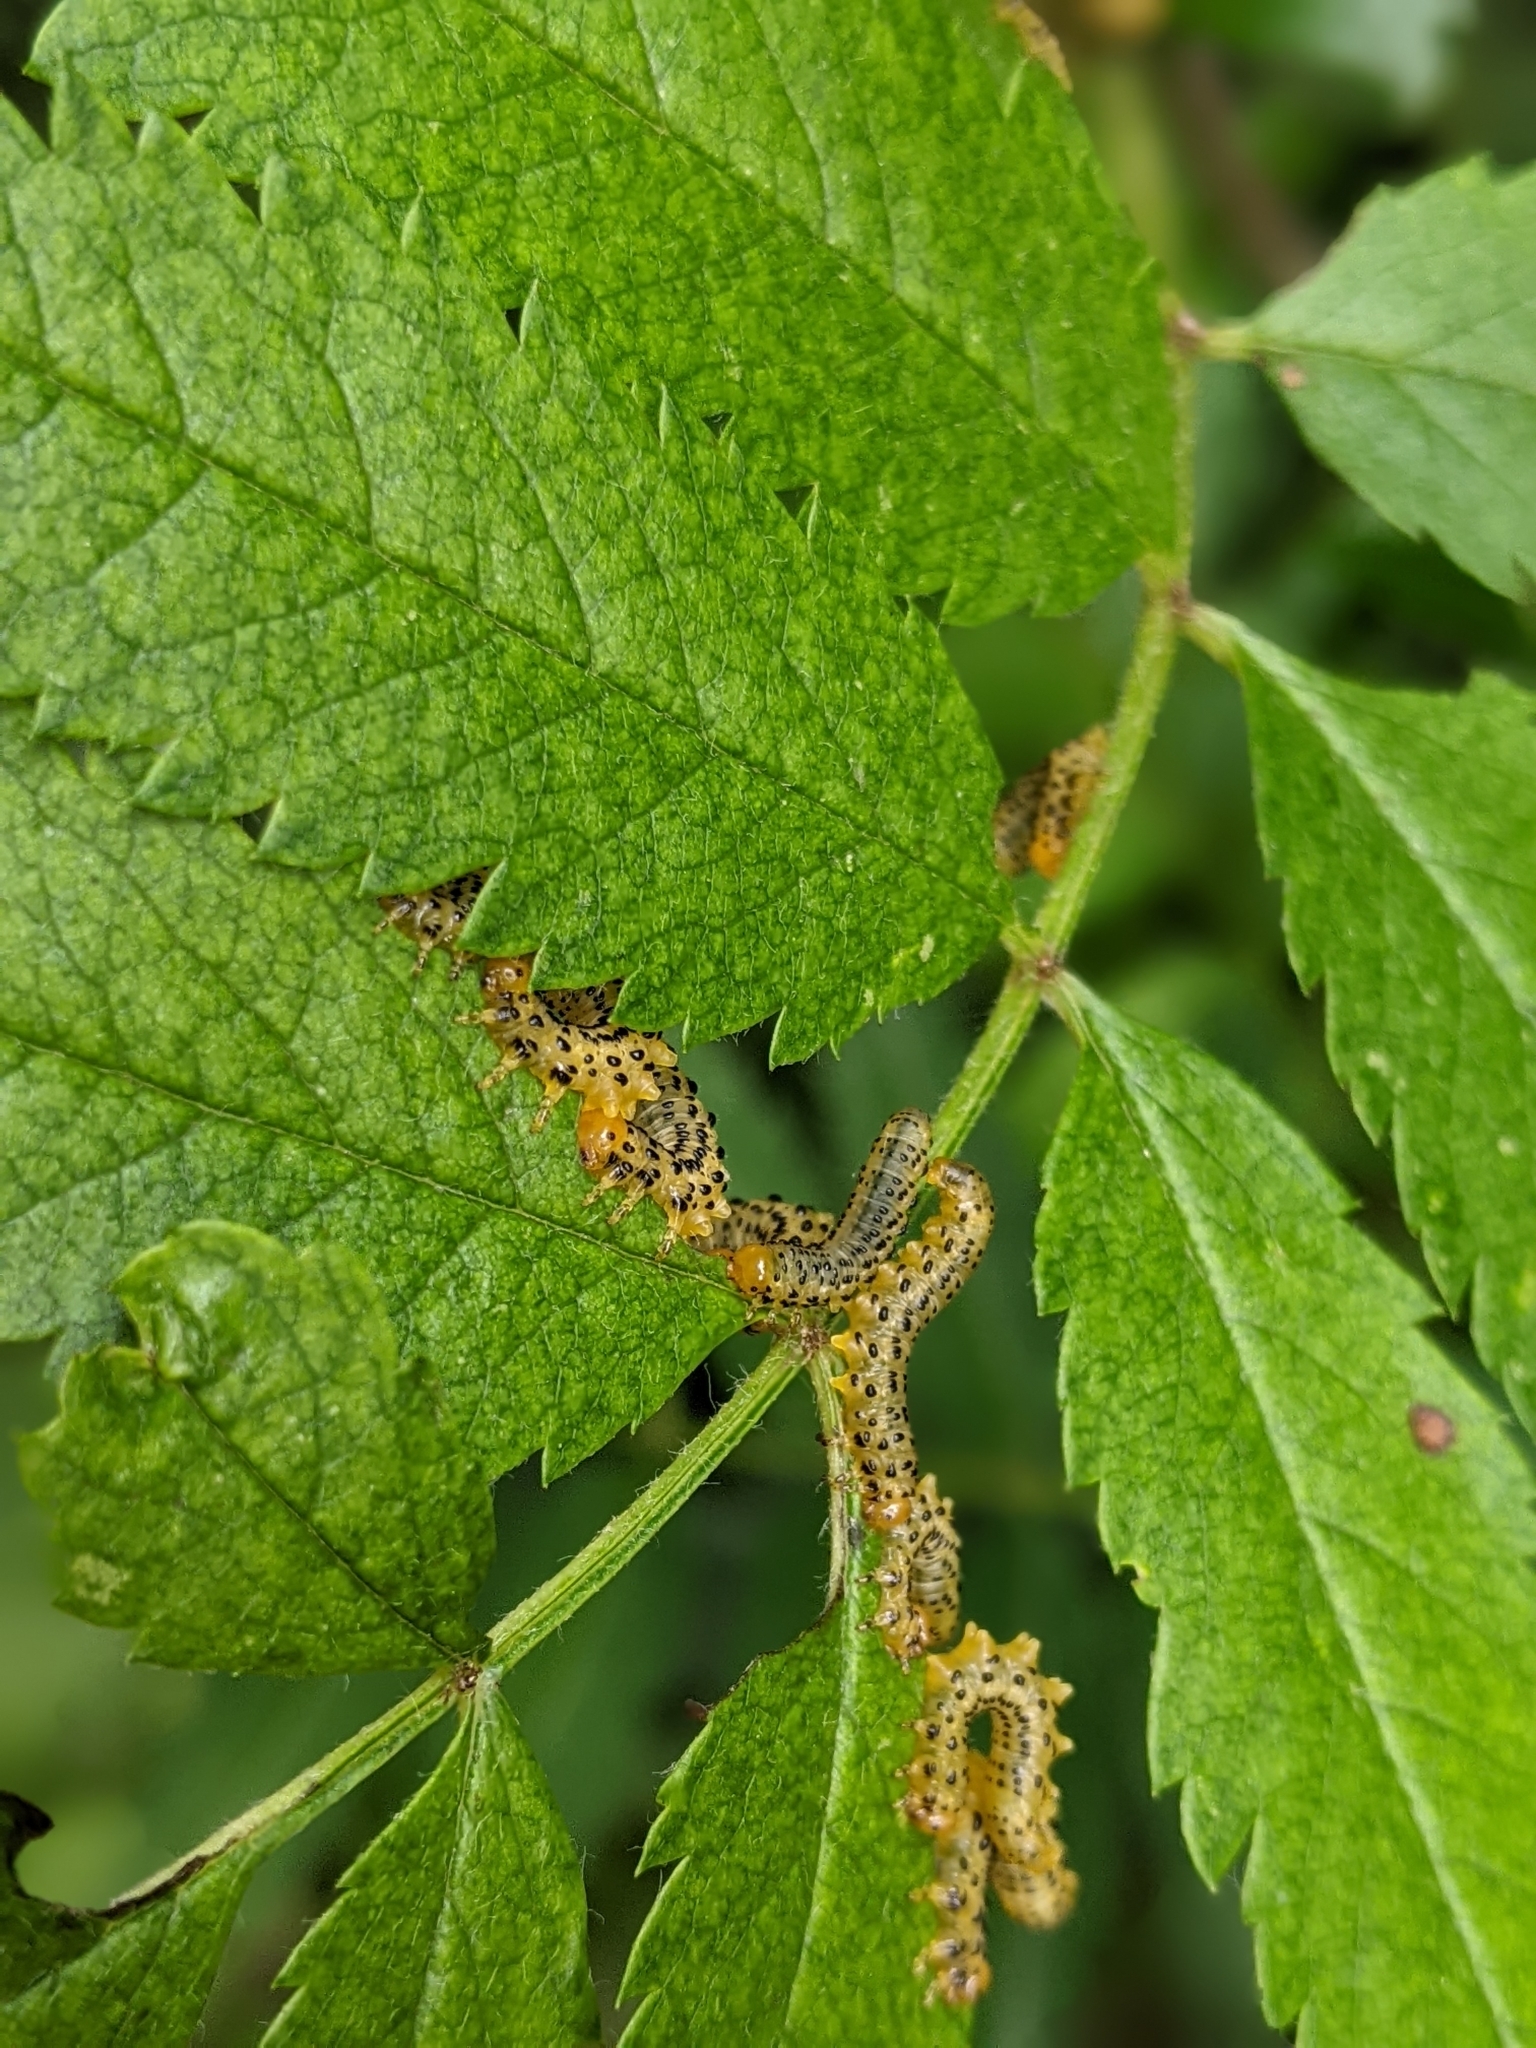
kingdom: Animalia
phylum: Arthropoda
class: Insecta
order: Hymenoptera
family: Tenthredinidae
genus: Pristiphora
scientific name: Pristiphora geniculata
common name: Mountain-ash sawfly
